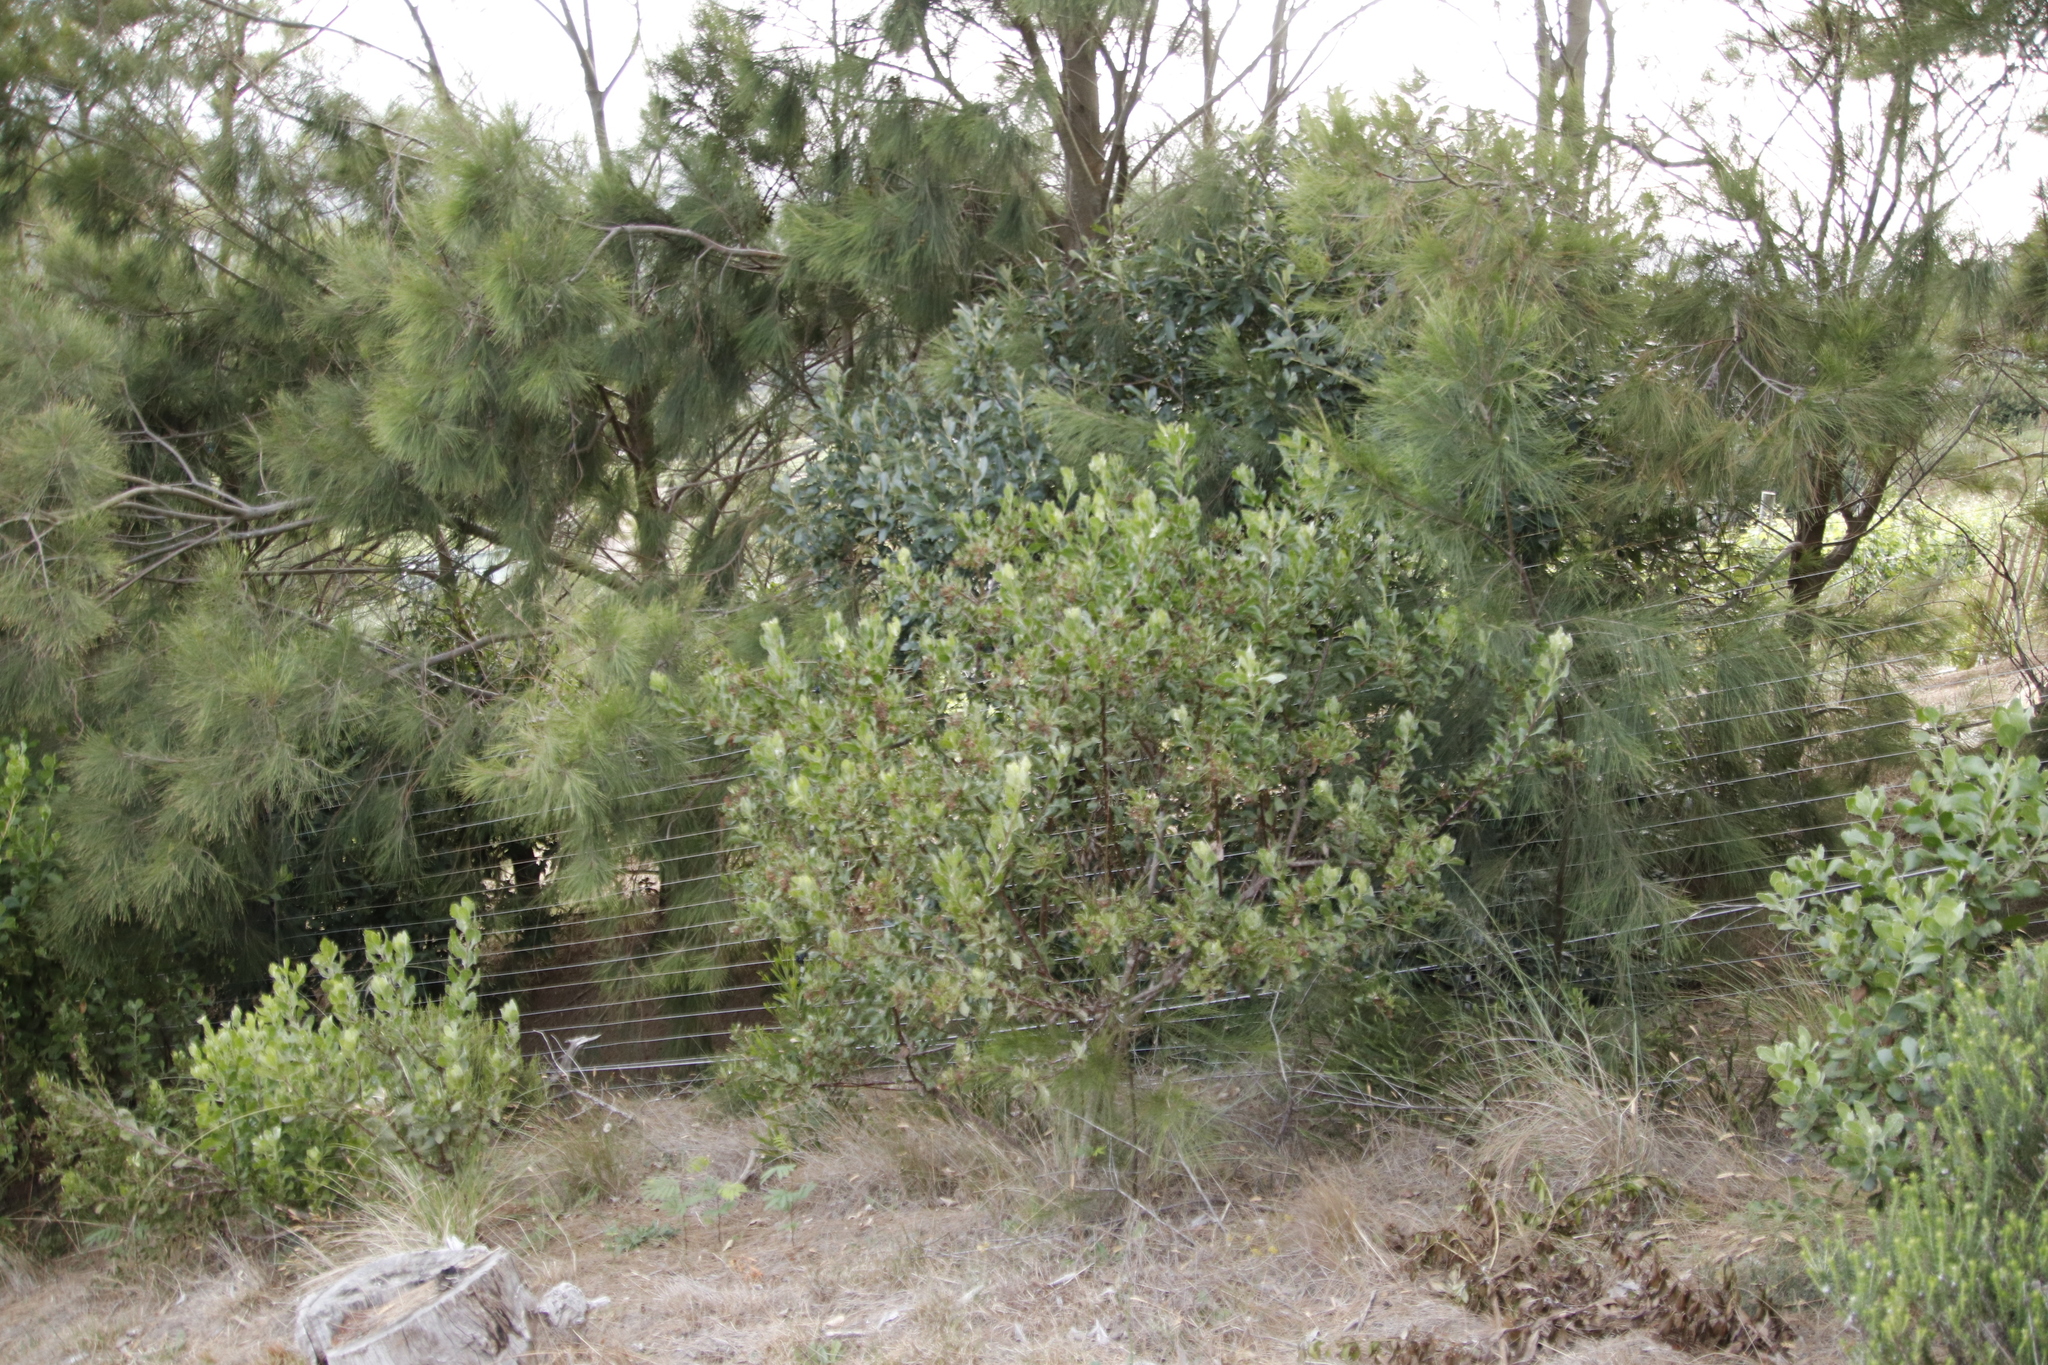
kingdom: Plantae
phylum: Tracheophyta
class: Magnoliopsida
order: Asterales
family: Asteraceae
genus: Osteospermum
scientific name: Osteospermum moniliferum
